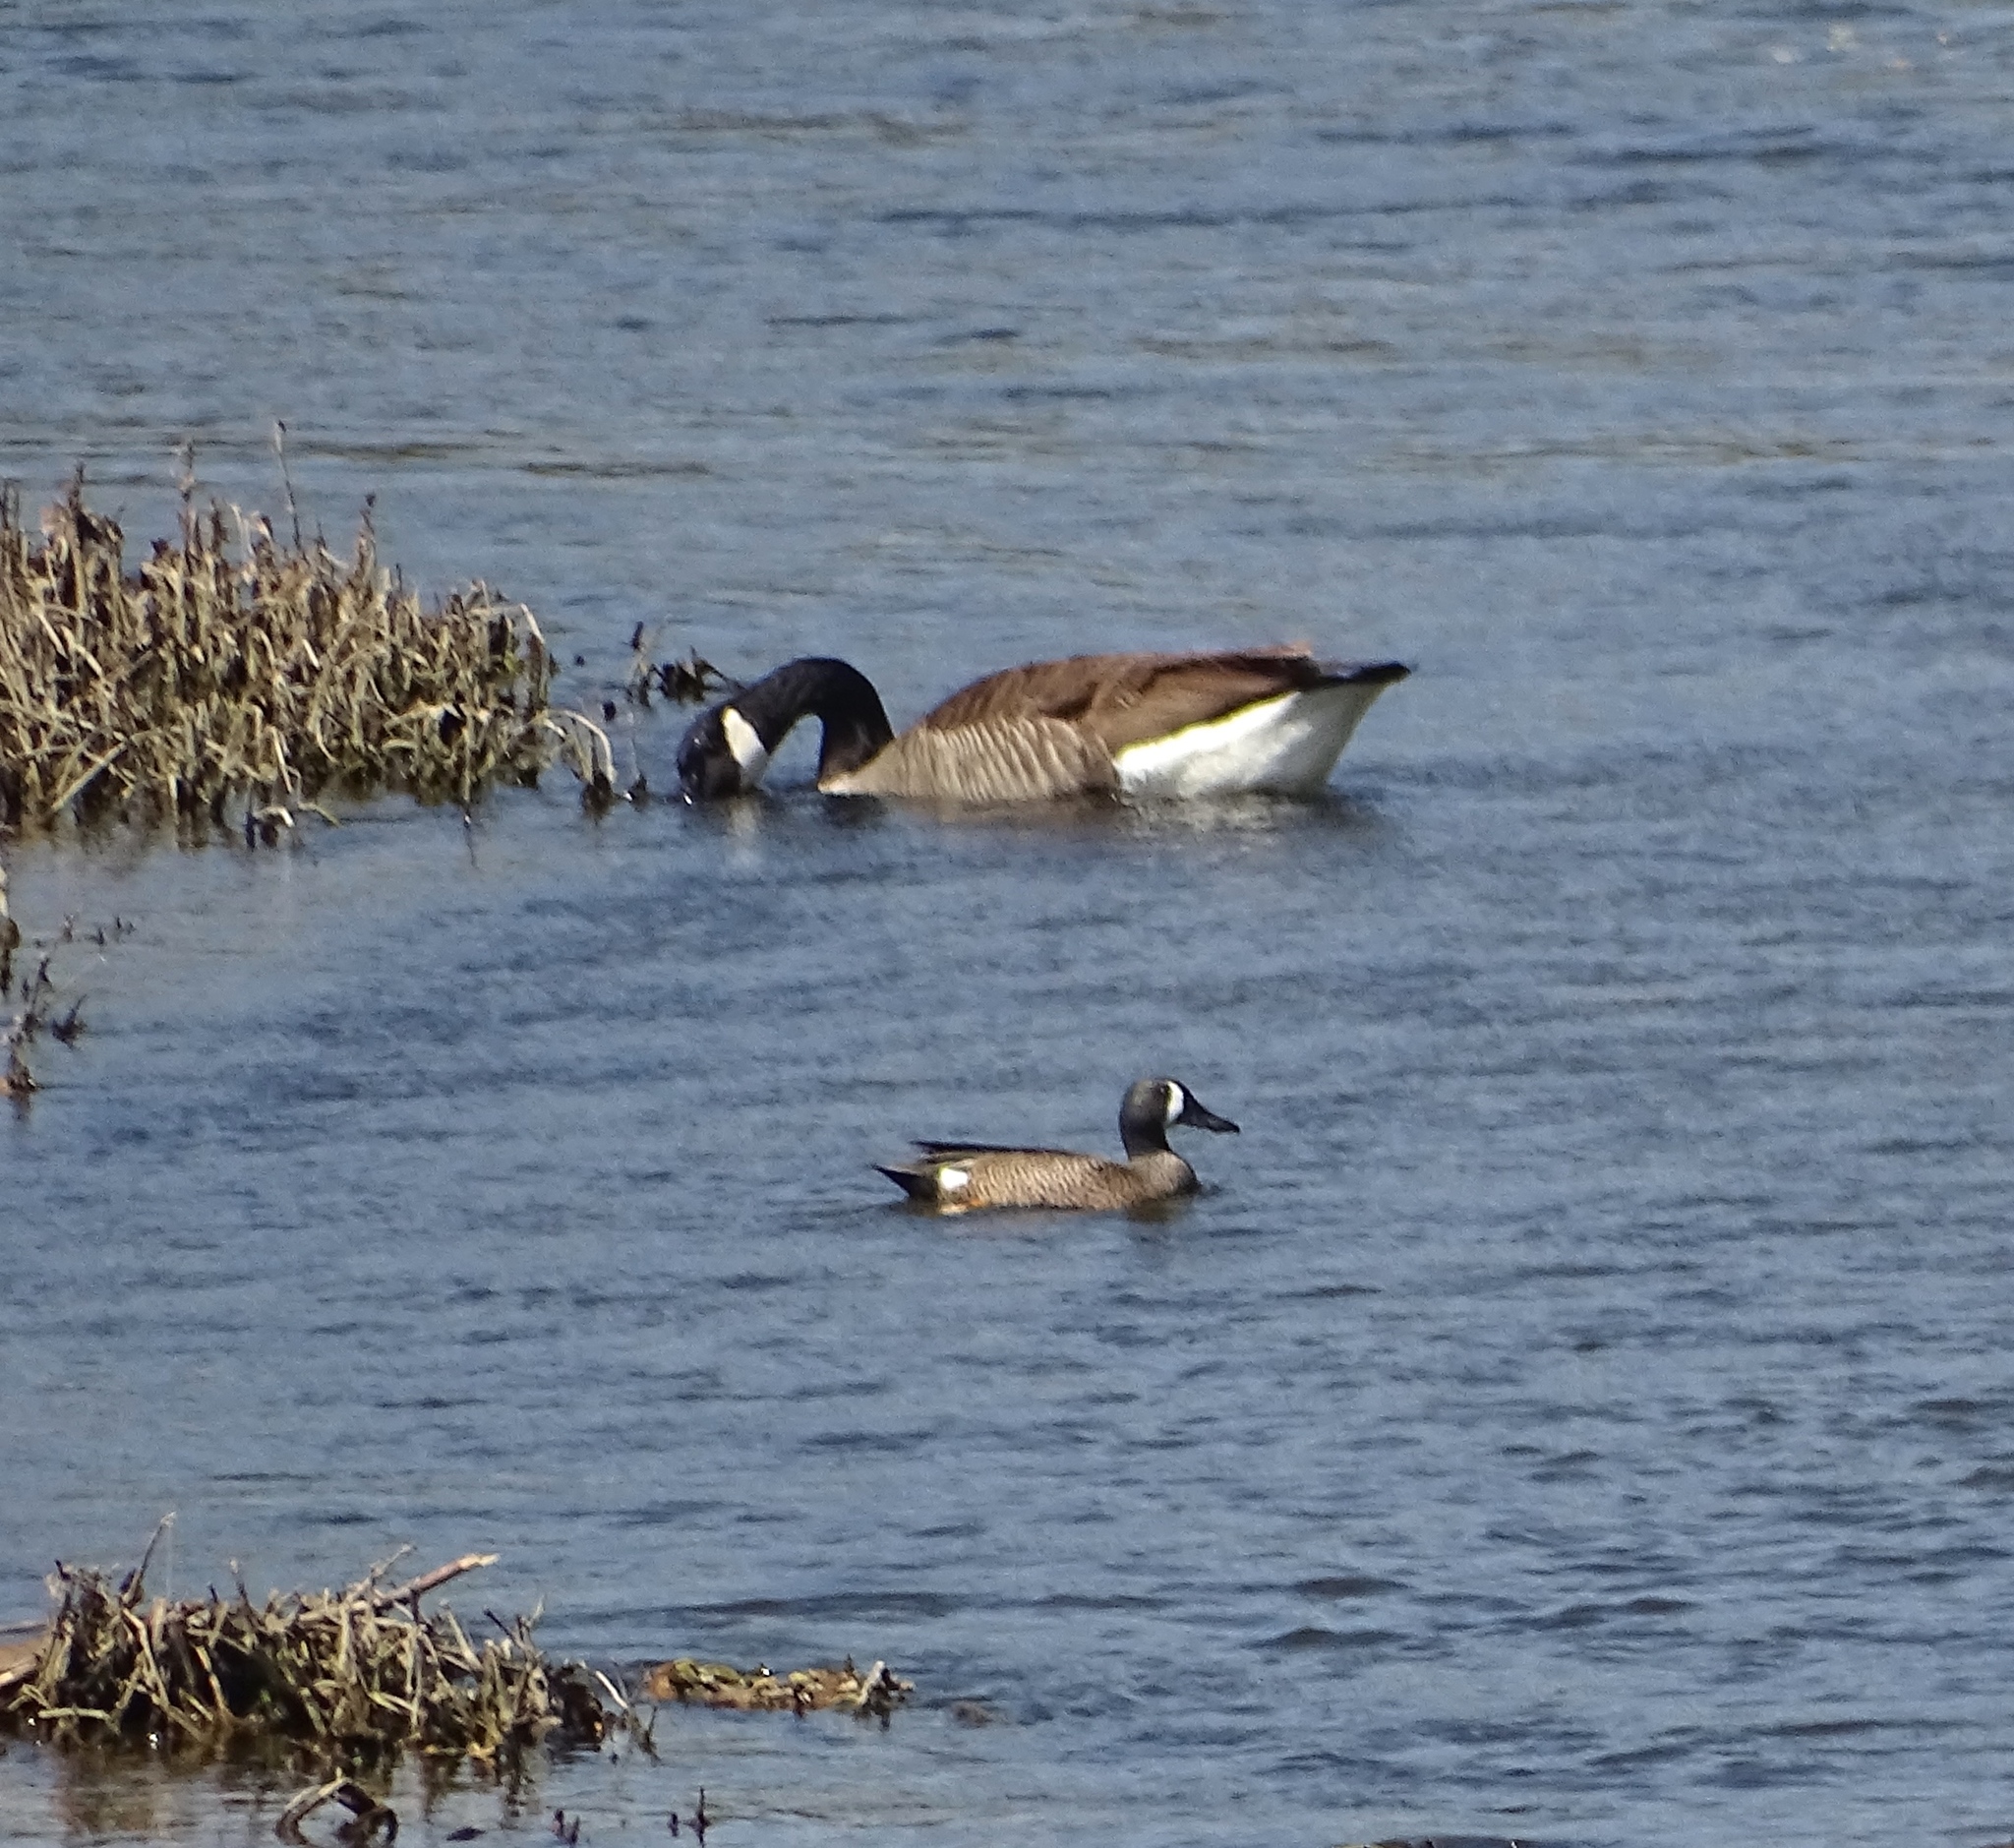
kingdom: Animalia
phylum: Chordata
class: Aves
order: Anseriformes
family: Anatidae
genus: Spatula
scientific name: Spatula discors
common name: Blue-winged teal
